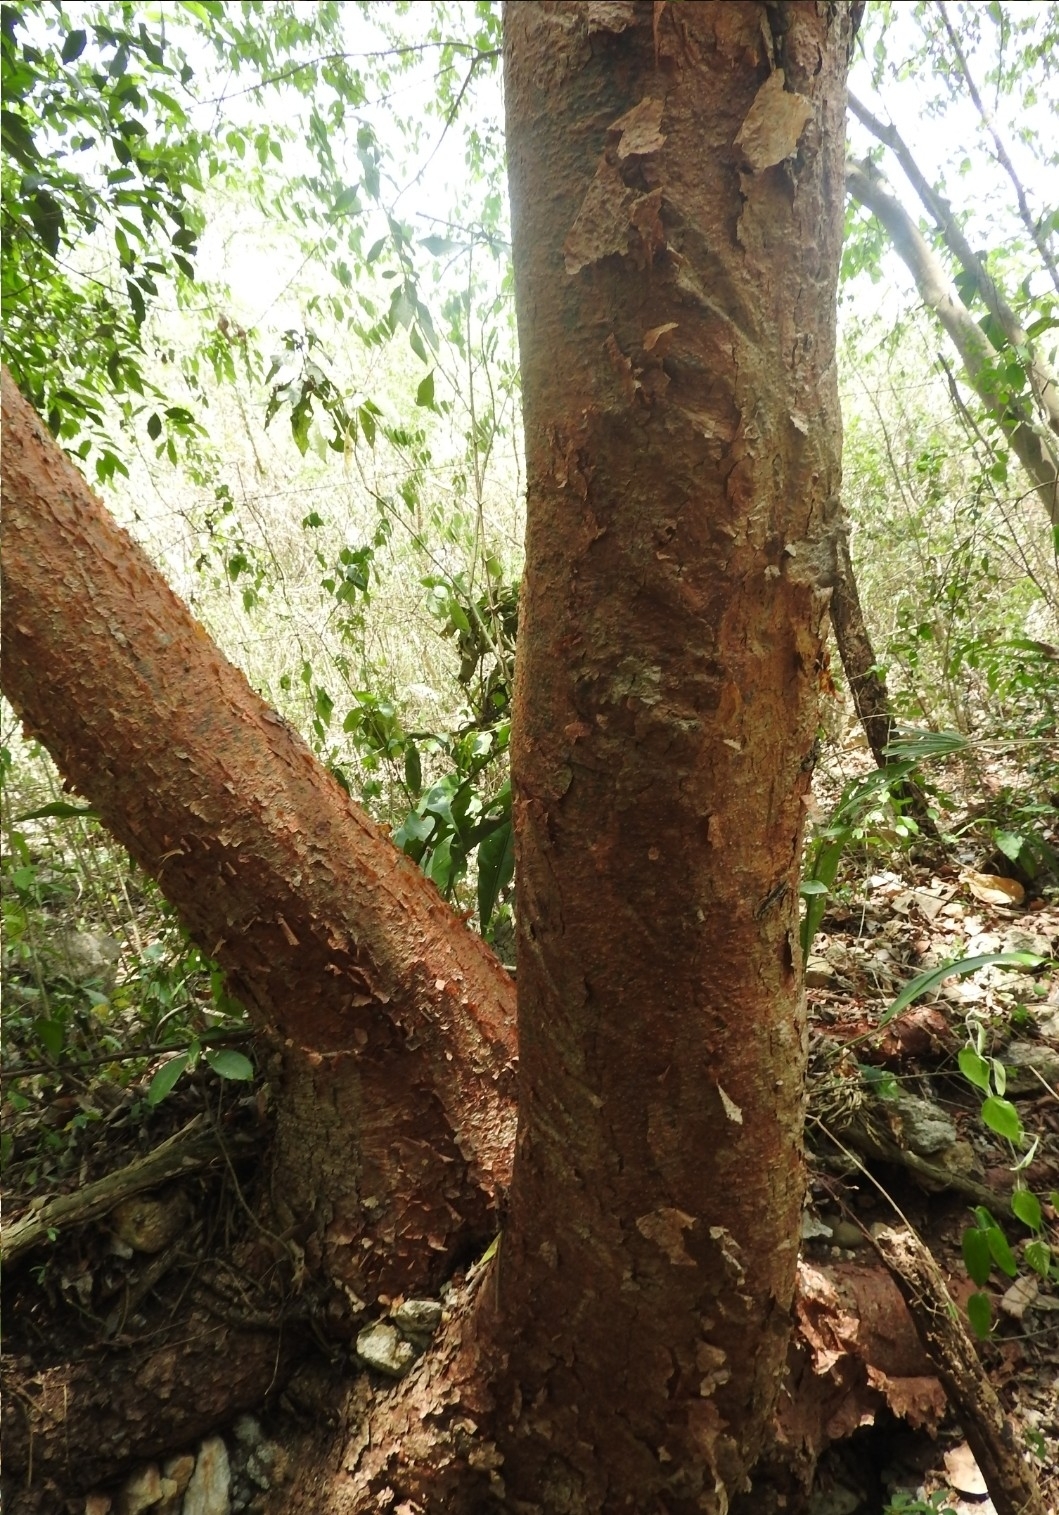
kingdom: Plantae
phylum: Tracheophyta
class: Magnoliopsida
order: Sapindales
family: Burseraceae
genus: Bursera
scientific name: Bursera simaruba
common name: Turpentine tree
